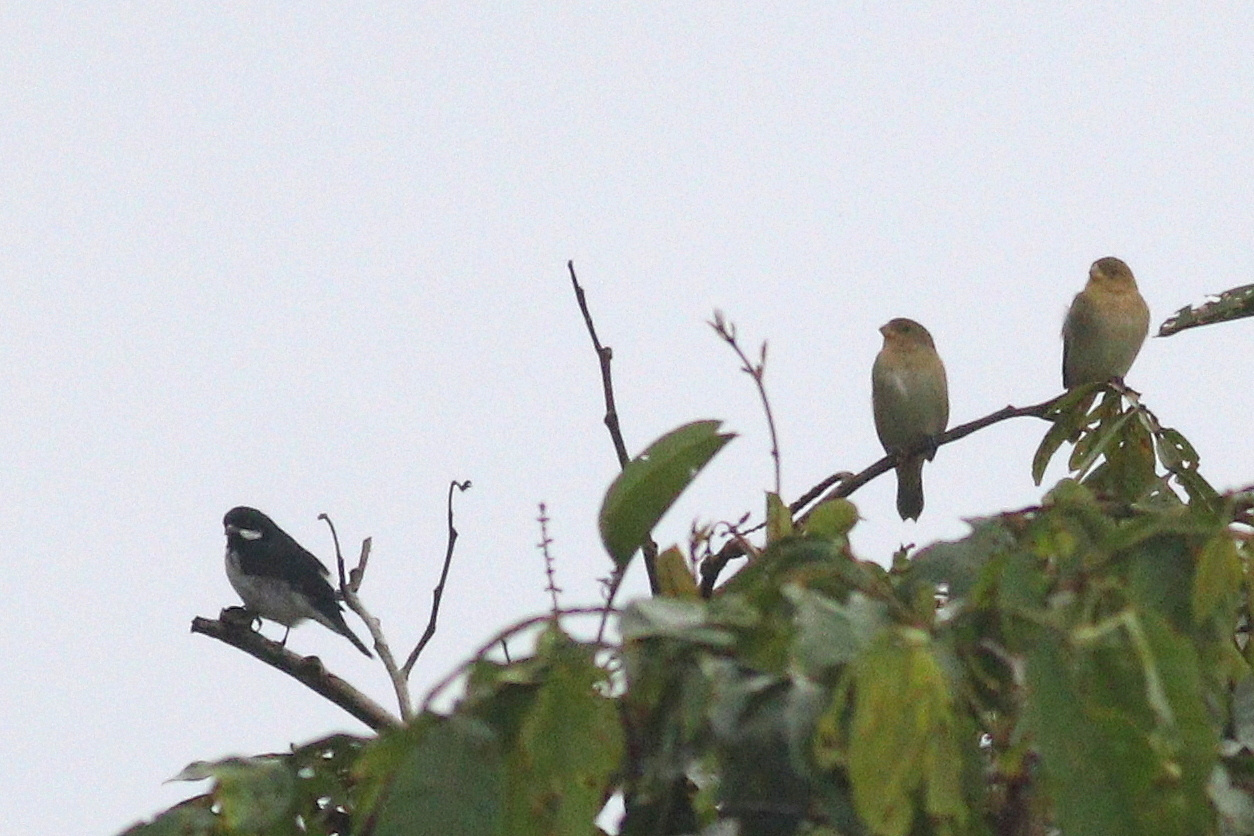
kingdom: Animalia
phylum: Chordata
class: Aves
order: Passeriformes
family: Thraupidae
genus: Sporophila
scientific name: Sporophila bouvronides
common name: Lesson's seedeater
